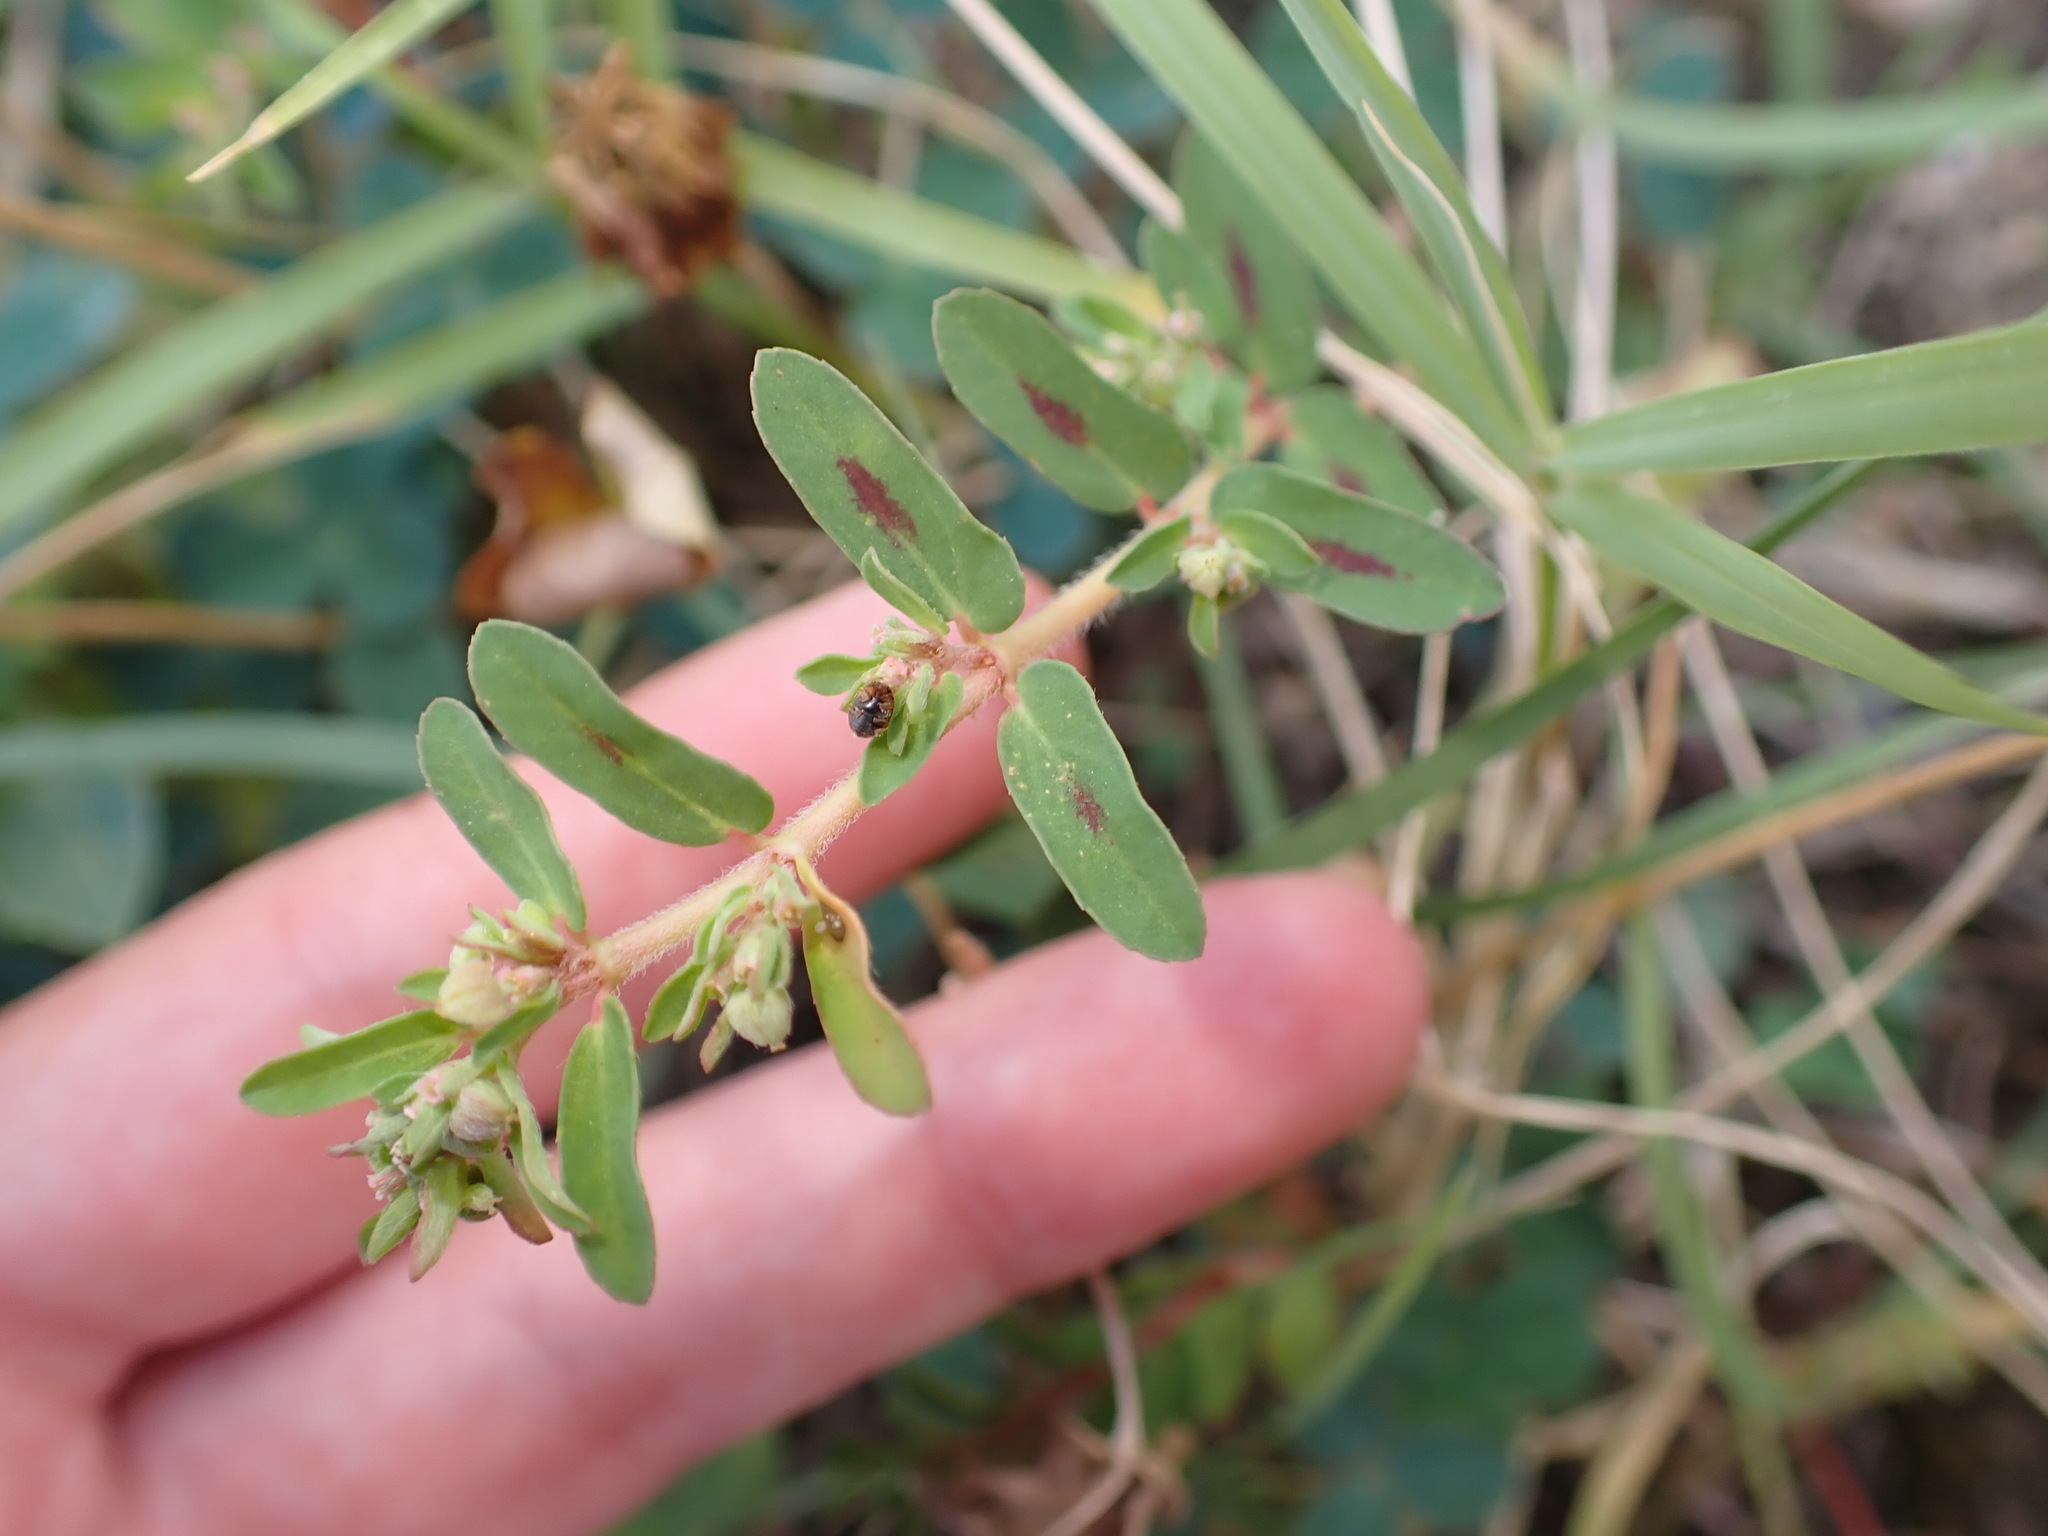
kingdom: Plantae
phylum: Tracheophyta
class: Magnoliopsida
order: Malpighiales
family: Euphorbiaceae
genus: Euphorbia
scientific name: Euphorbia maculata
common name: Spotted spurge
